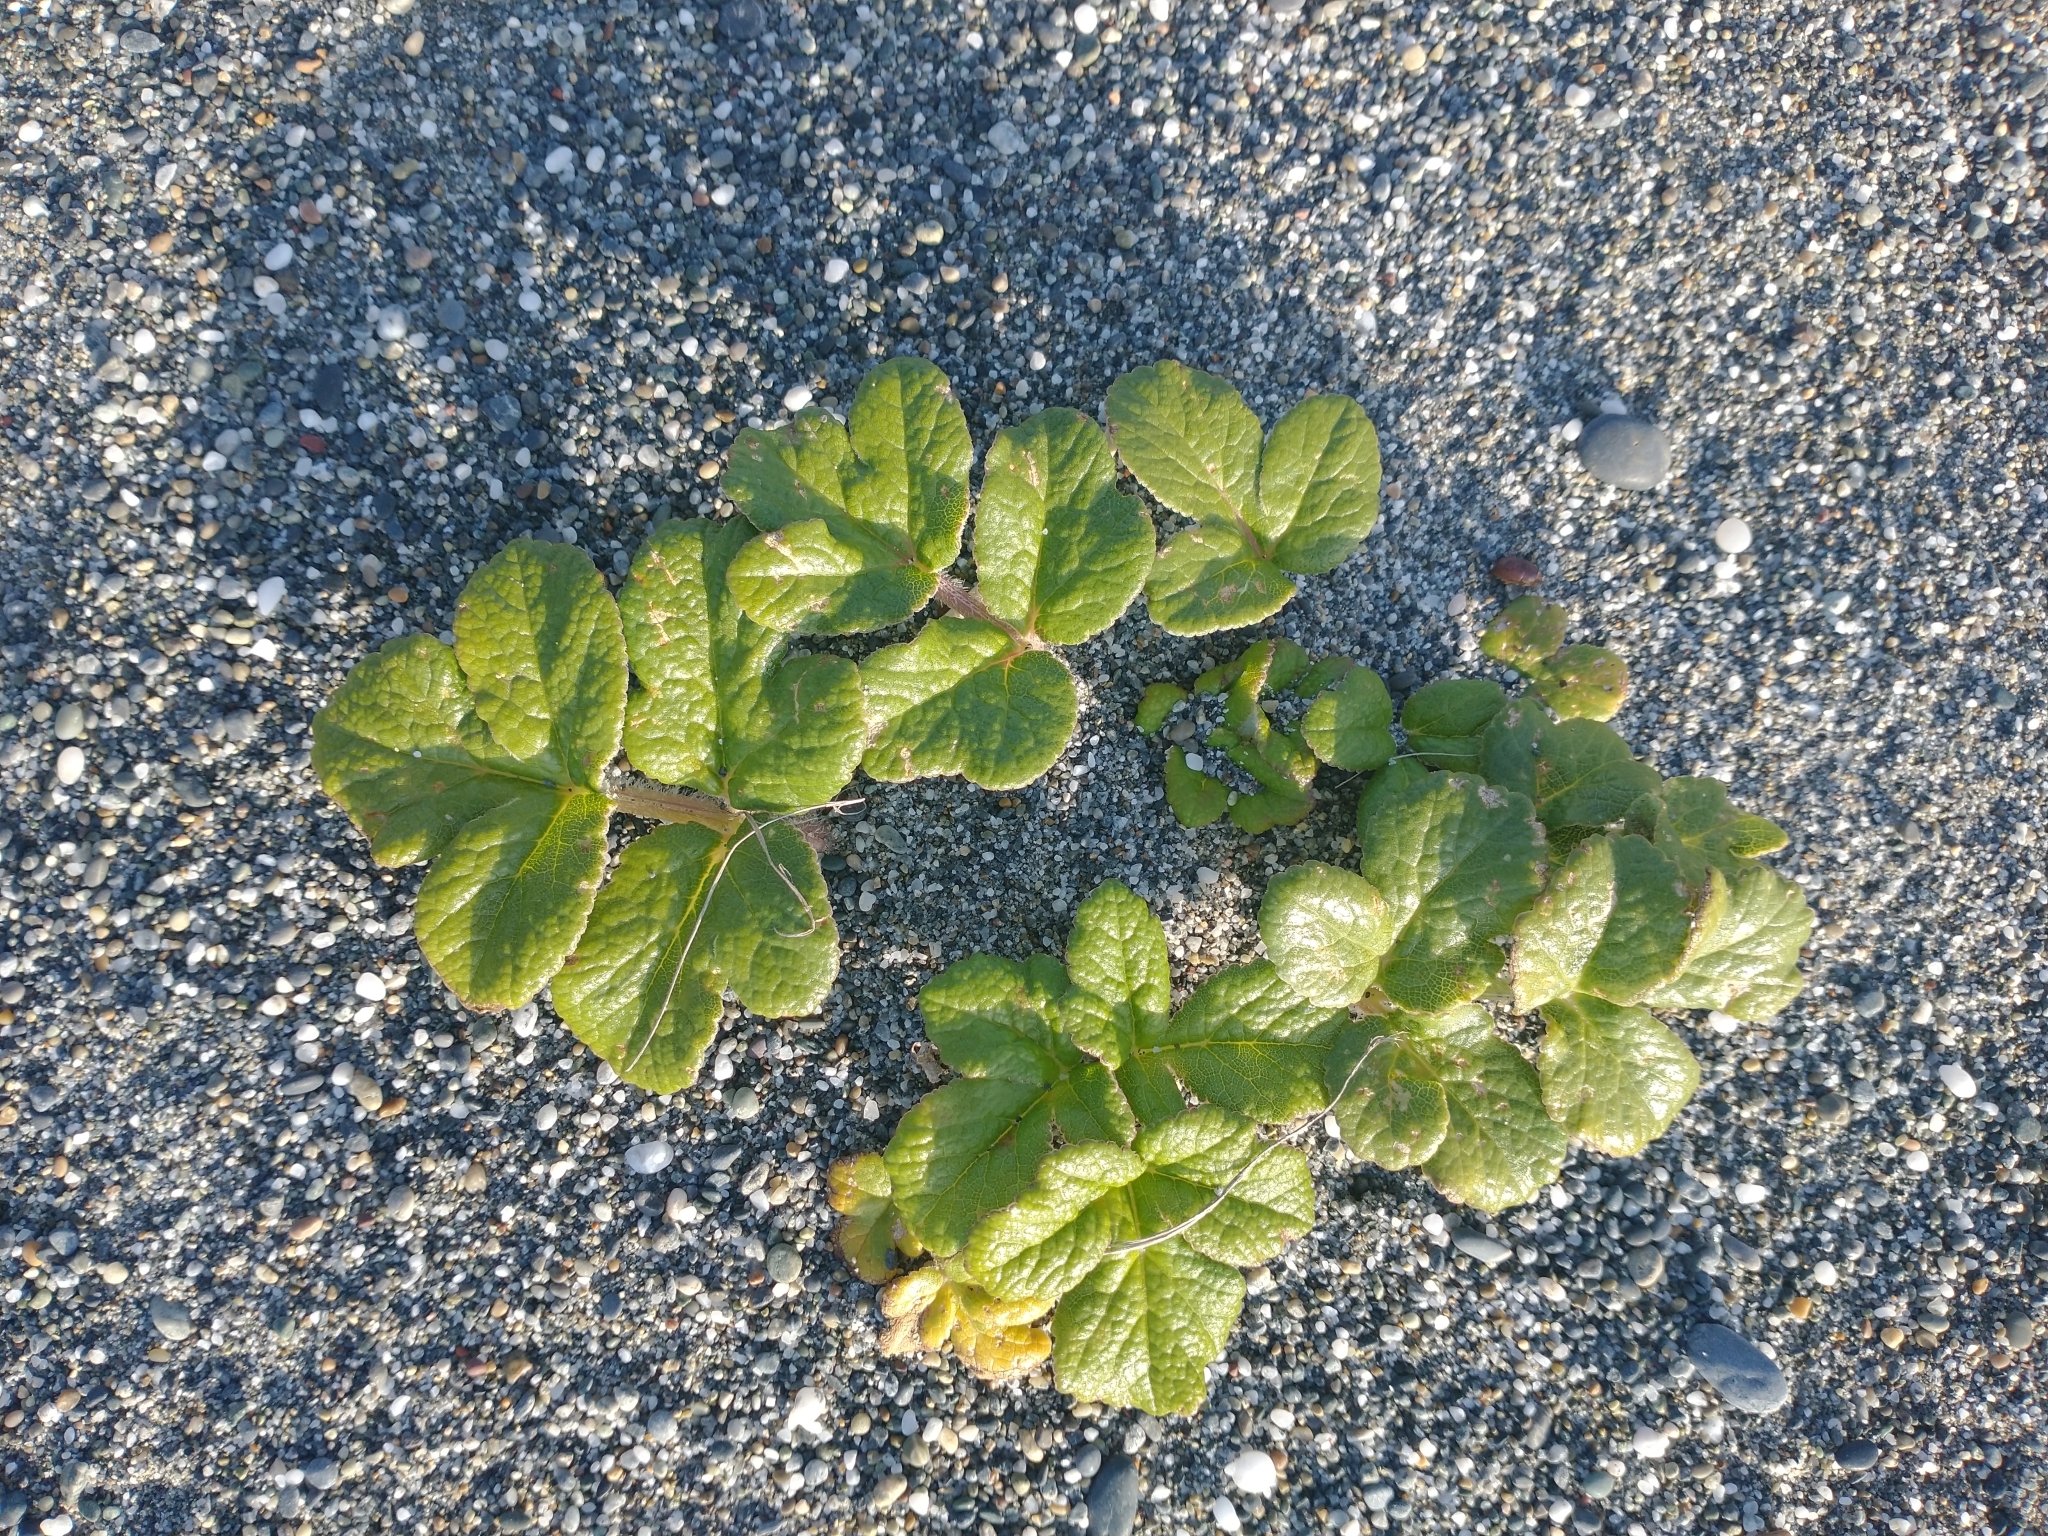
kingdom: Plantae
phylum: Tracheophyta
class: Magnoliopsida
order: Apiales
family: Apiaceae
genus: Glehnia
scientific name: Glehnia littoralis
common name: Beach silvertop
